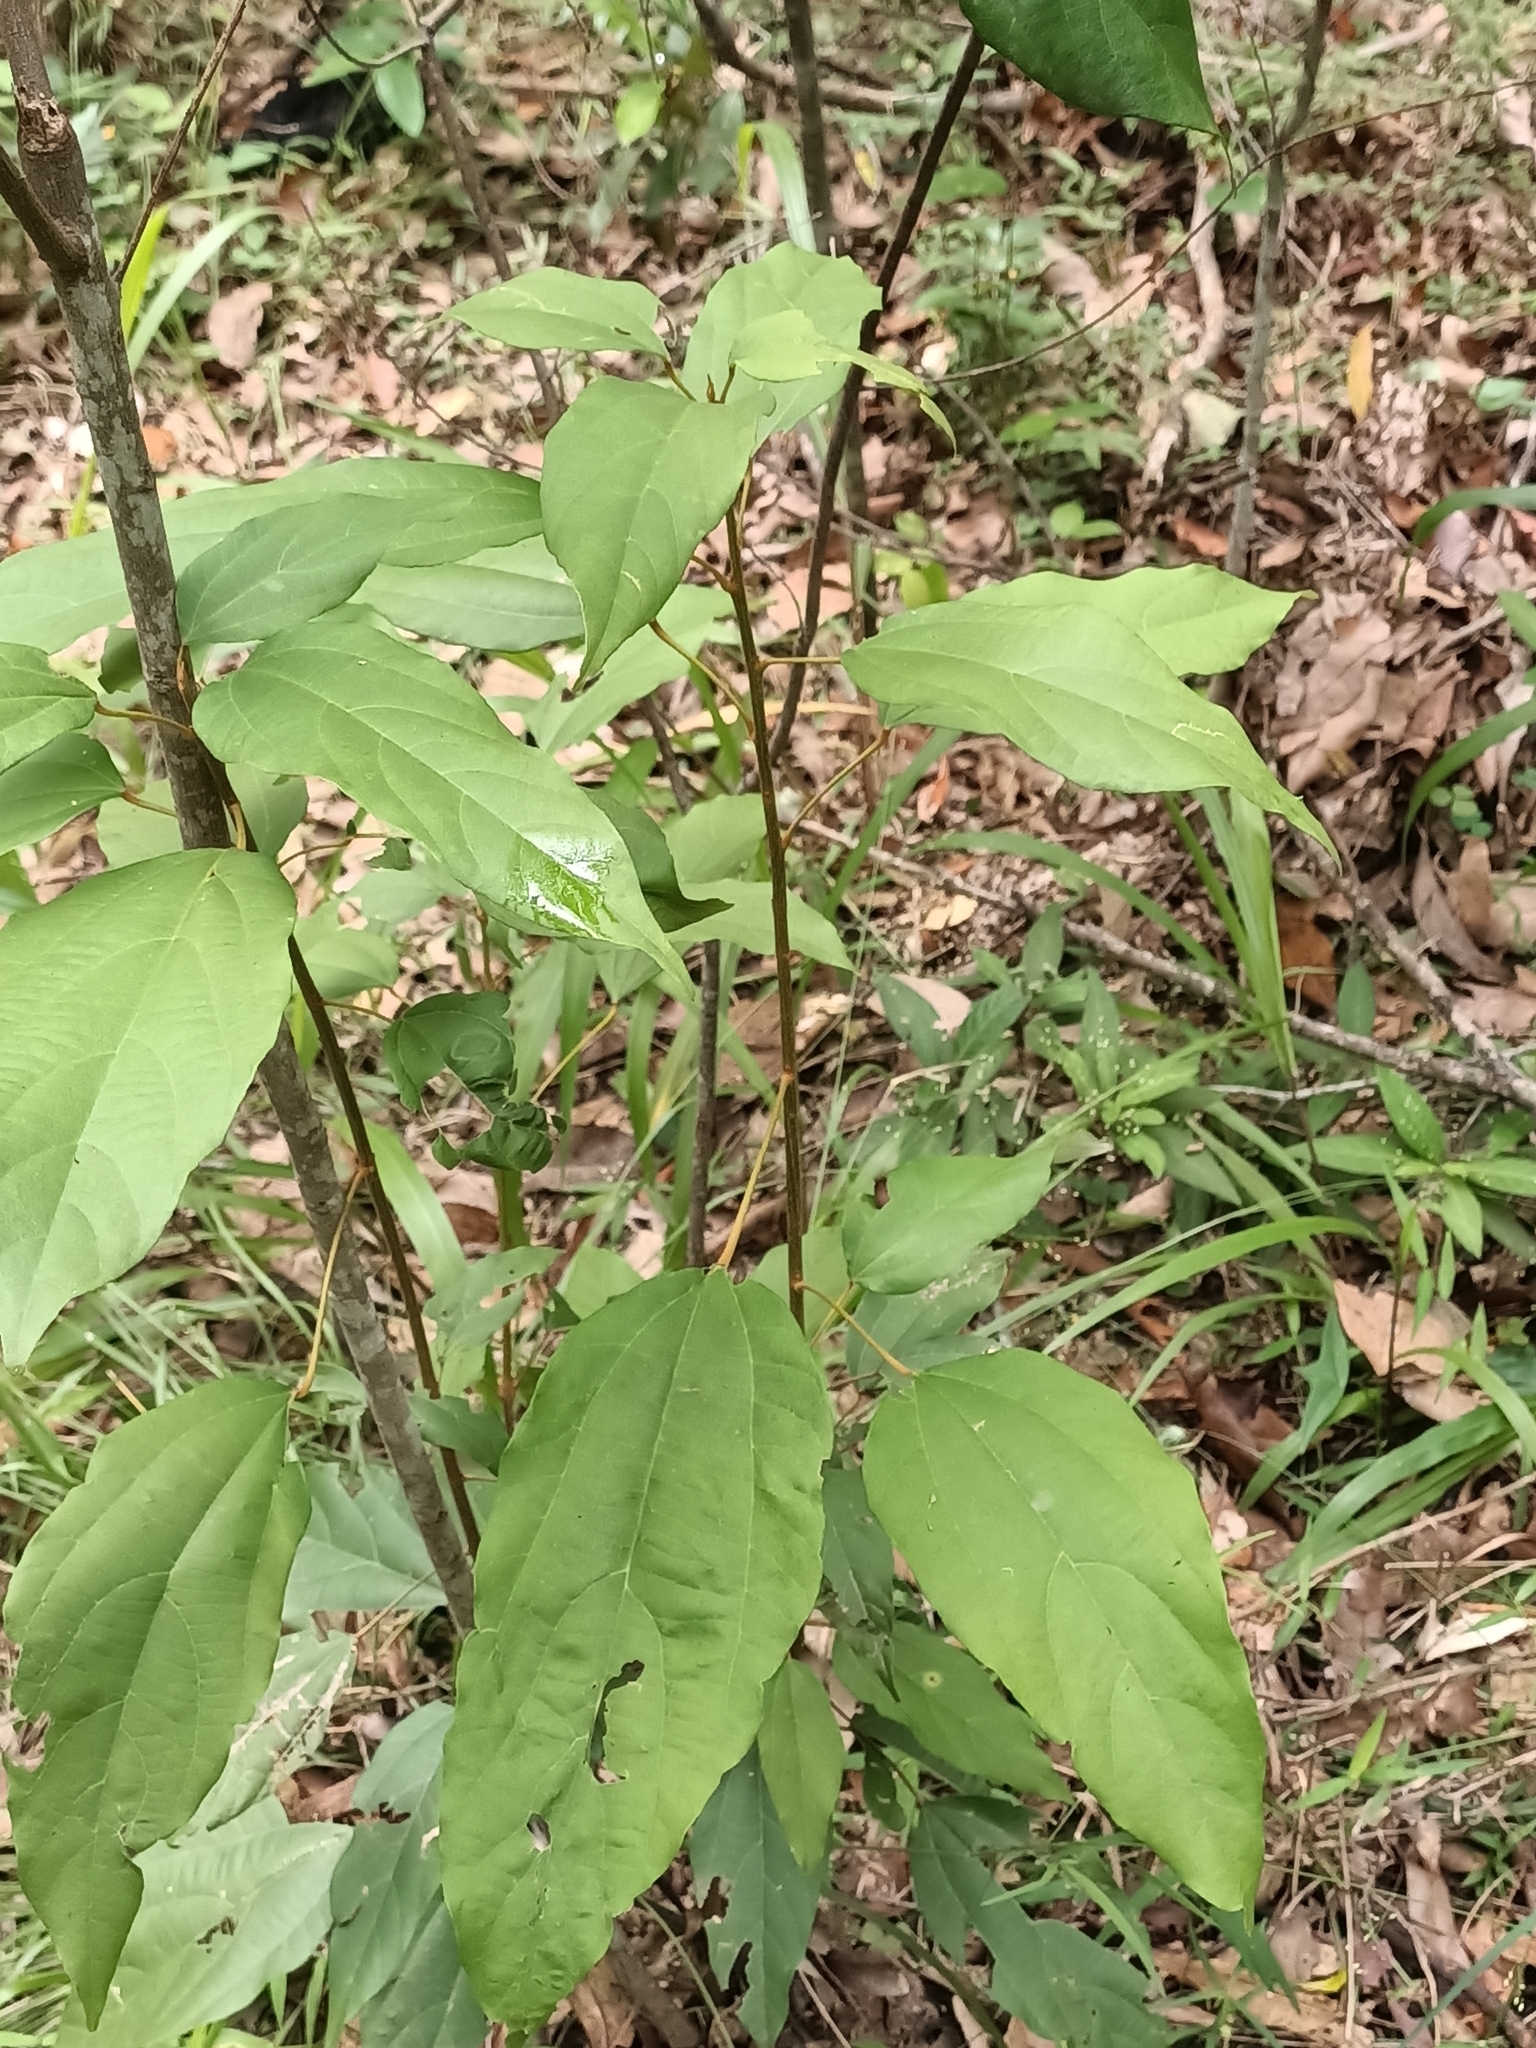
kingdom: Plantae
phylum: Tracheophyta
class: Magnoliopsida
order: Malpighiales
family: Euphorbiaceae
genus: Mallotus
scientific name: Mallotus philippensis
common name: Kamala tree
